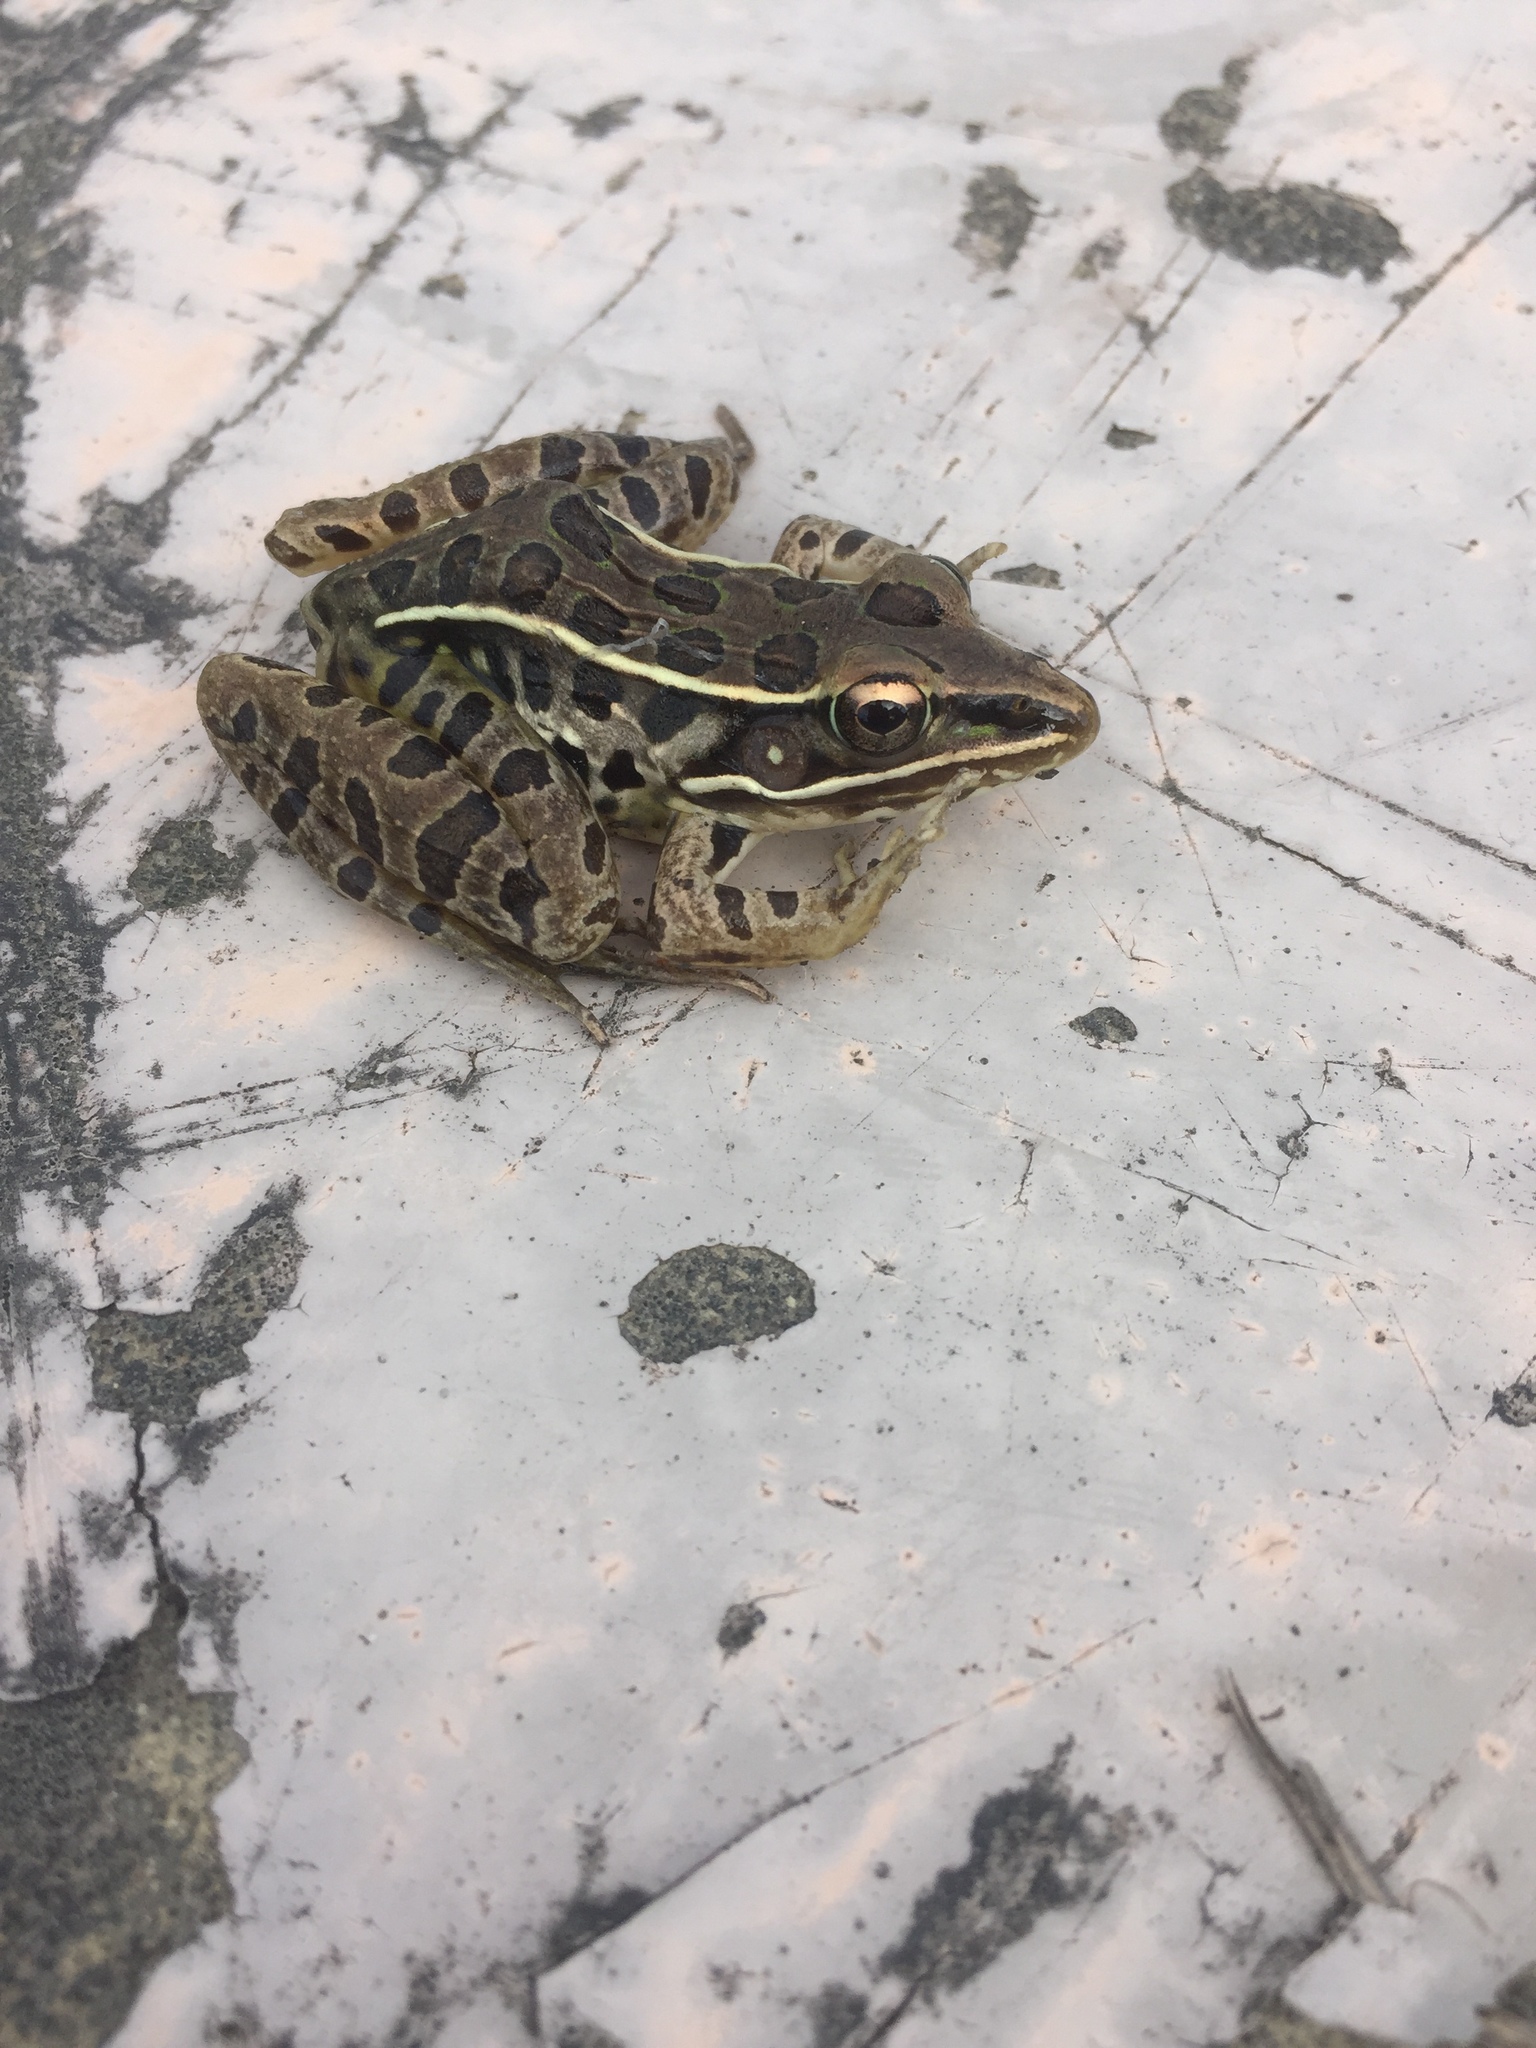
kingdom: Animalia
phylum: Chordata
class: Amphibia
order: Anura
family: Ranidae
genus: Lithobates
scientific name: Lithobates sphenocephalus
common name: Southern leopard frog
